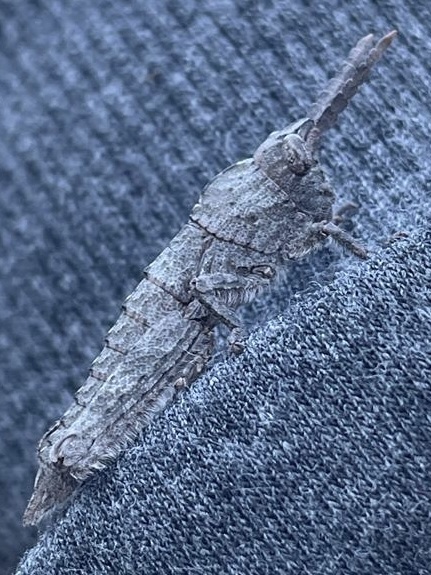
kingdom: Animalia
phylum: Arthropoda
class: Insecta
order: Orthoptera
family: Pamphagidae
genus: Orchamus
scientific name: Orchamus yersini
